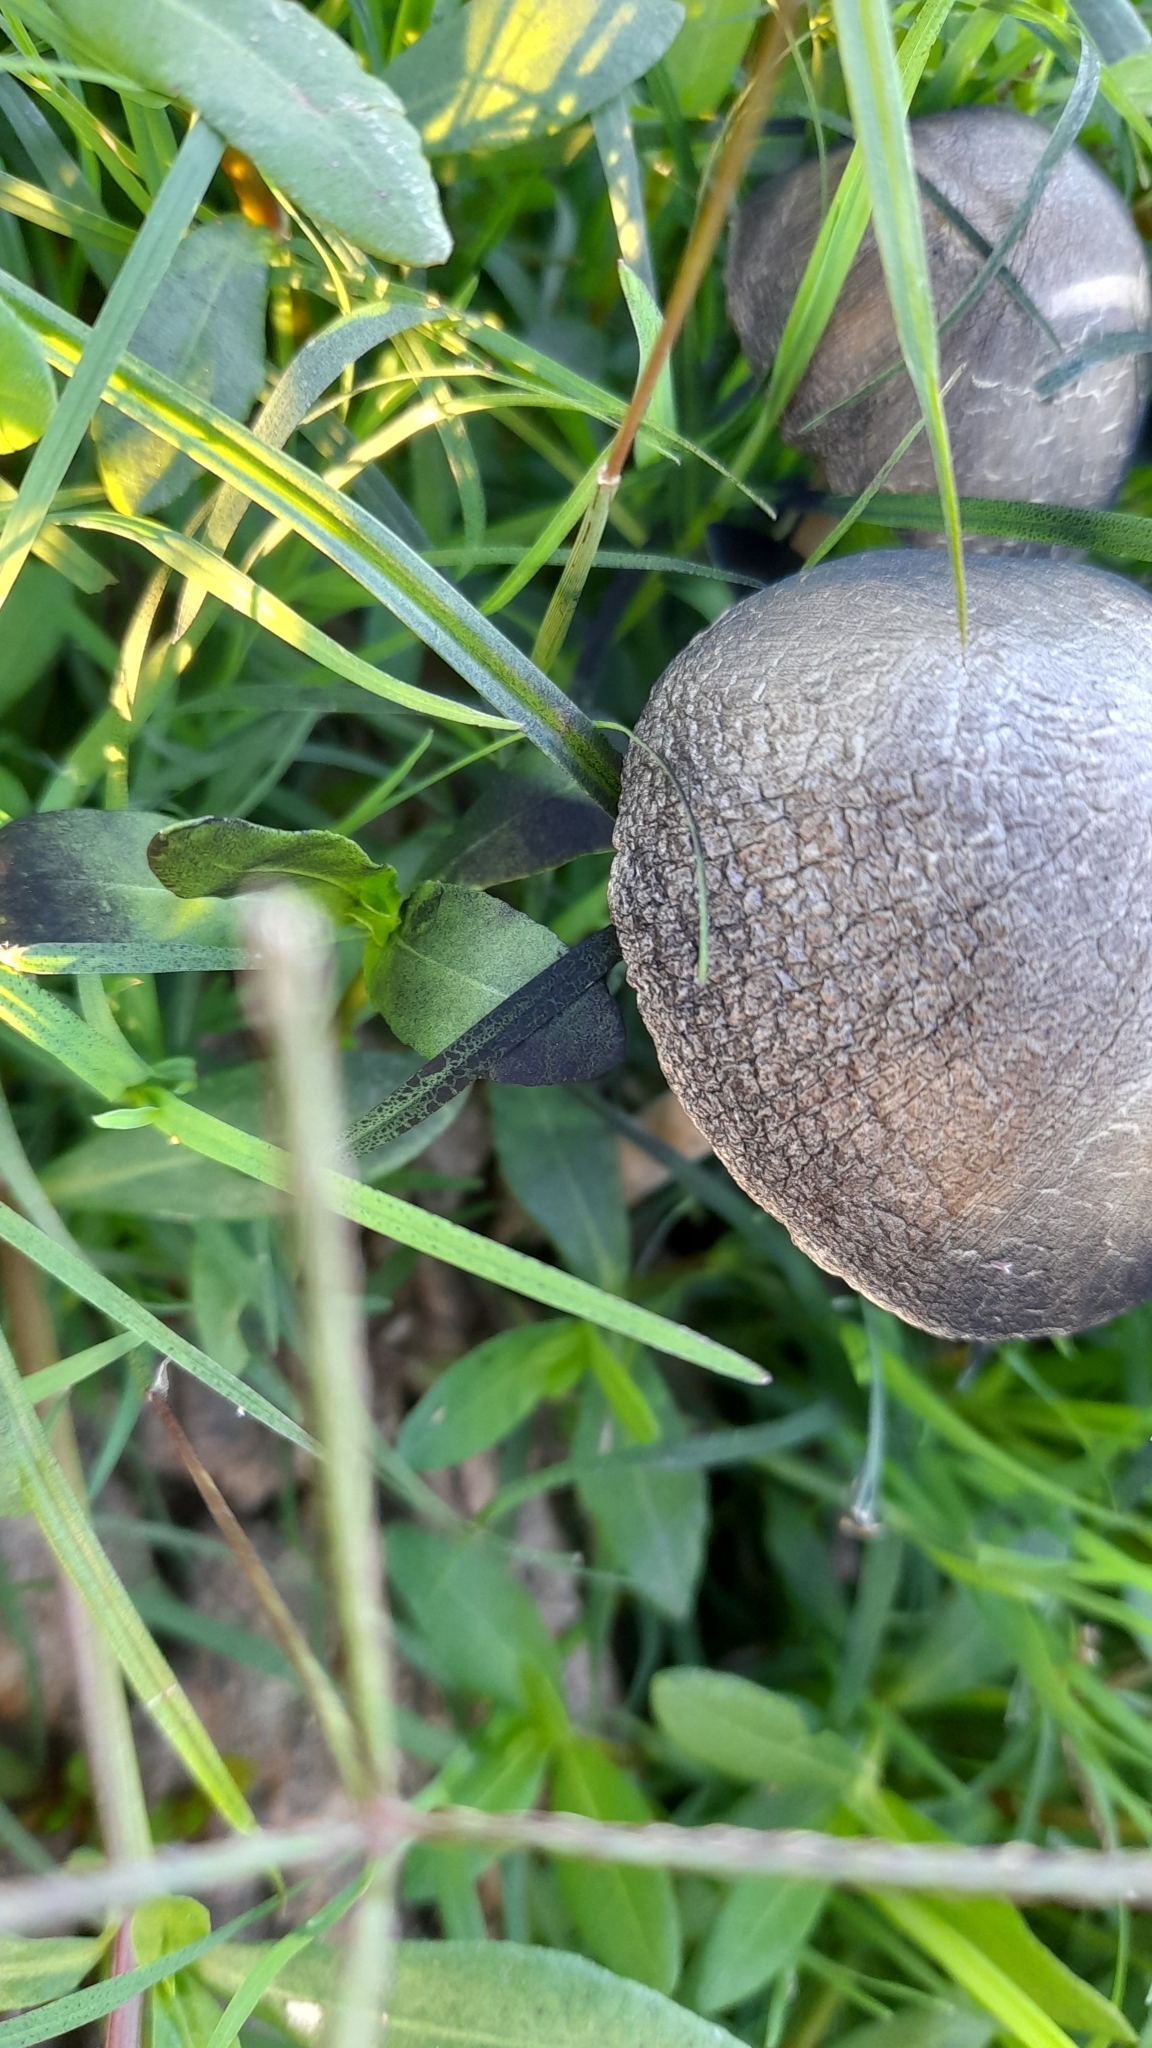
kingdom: Fungi
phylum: Basidiomycota
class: Agaricomycetes
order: Agaricales
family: Bolbitiaceae
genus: Panaeolus
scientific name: Panaeolus antillarum
